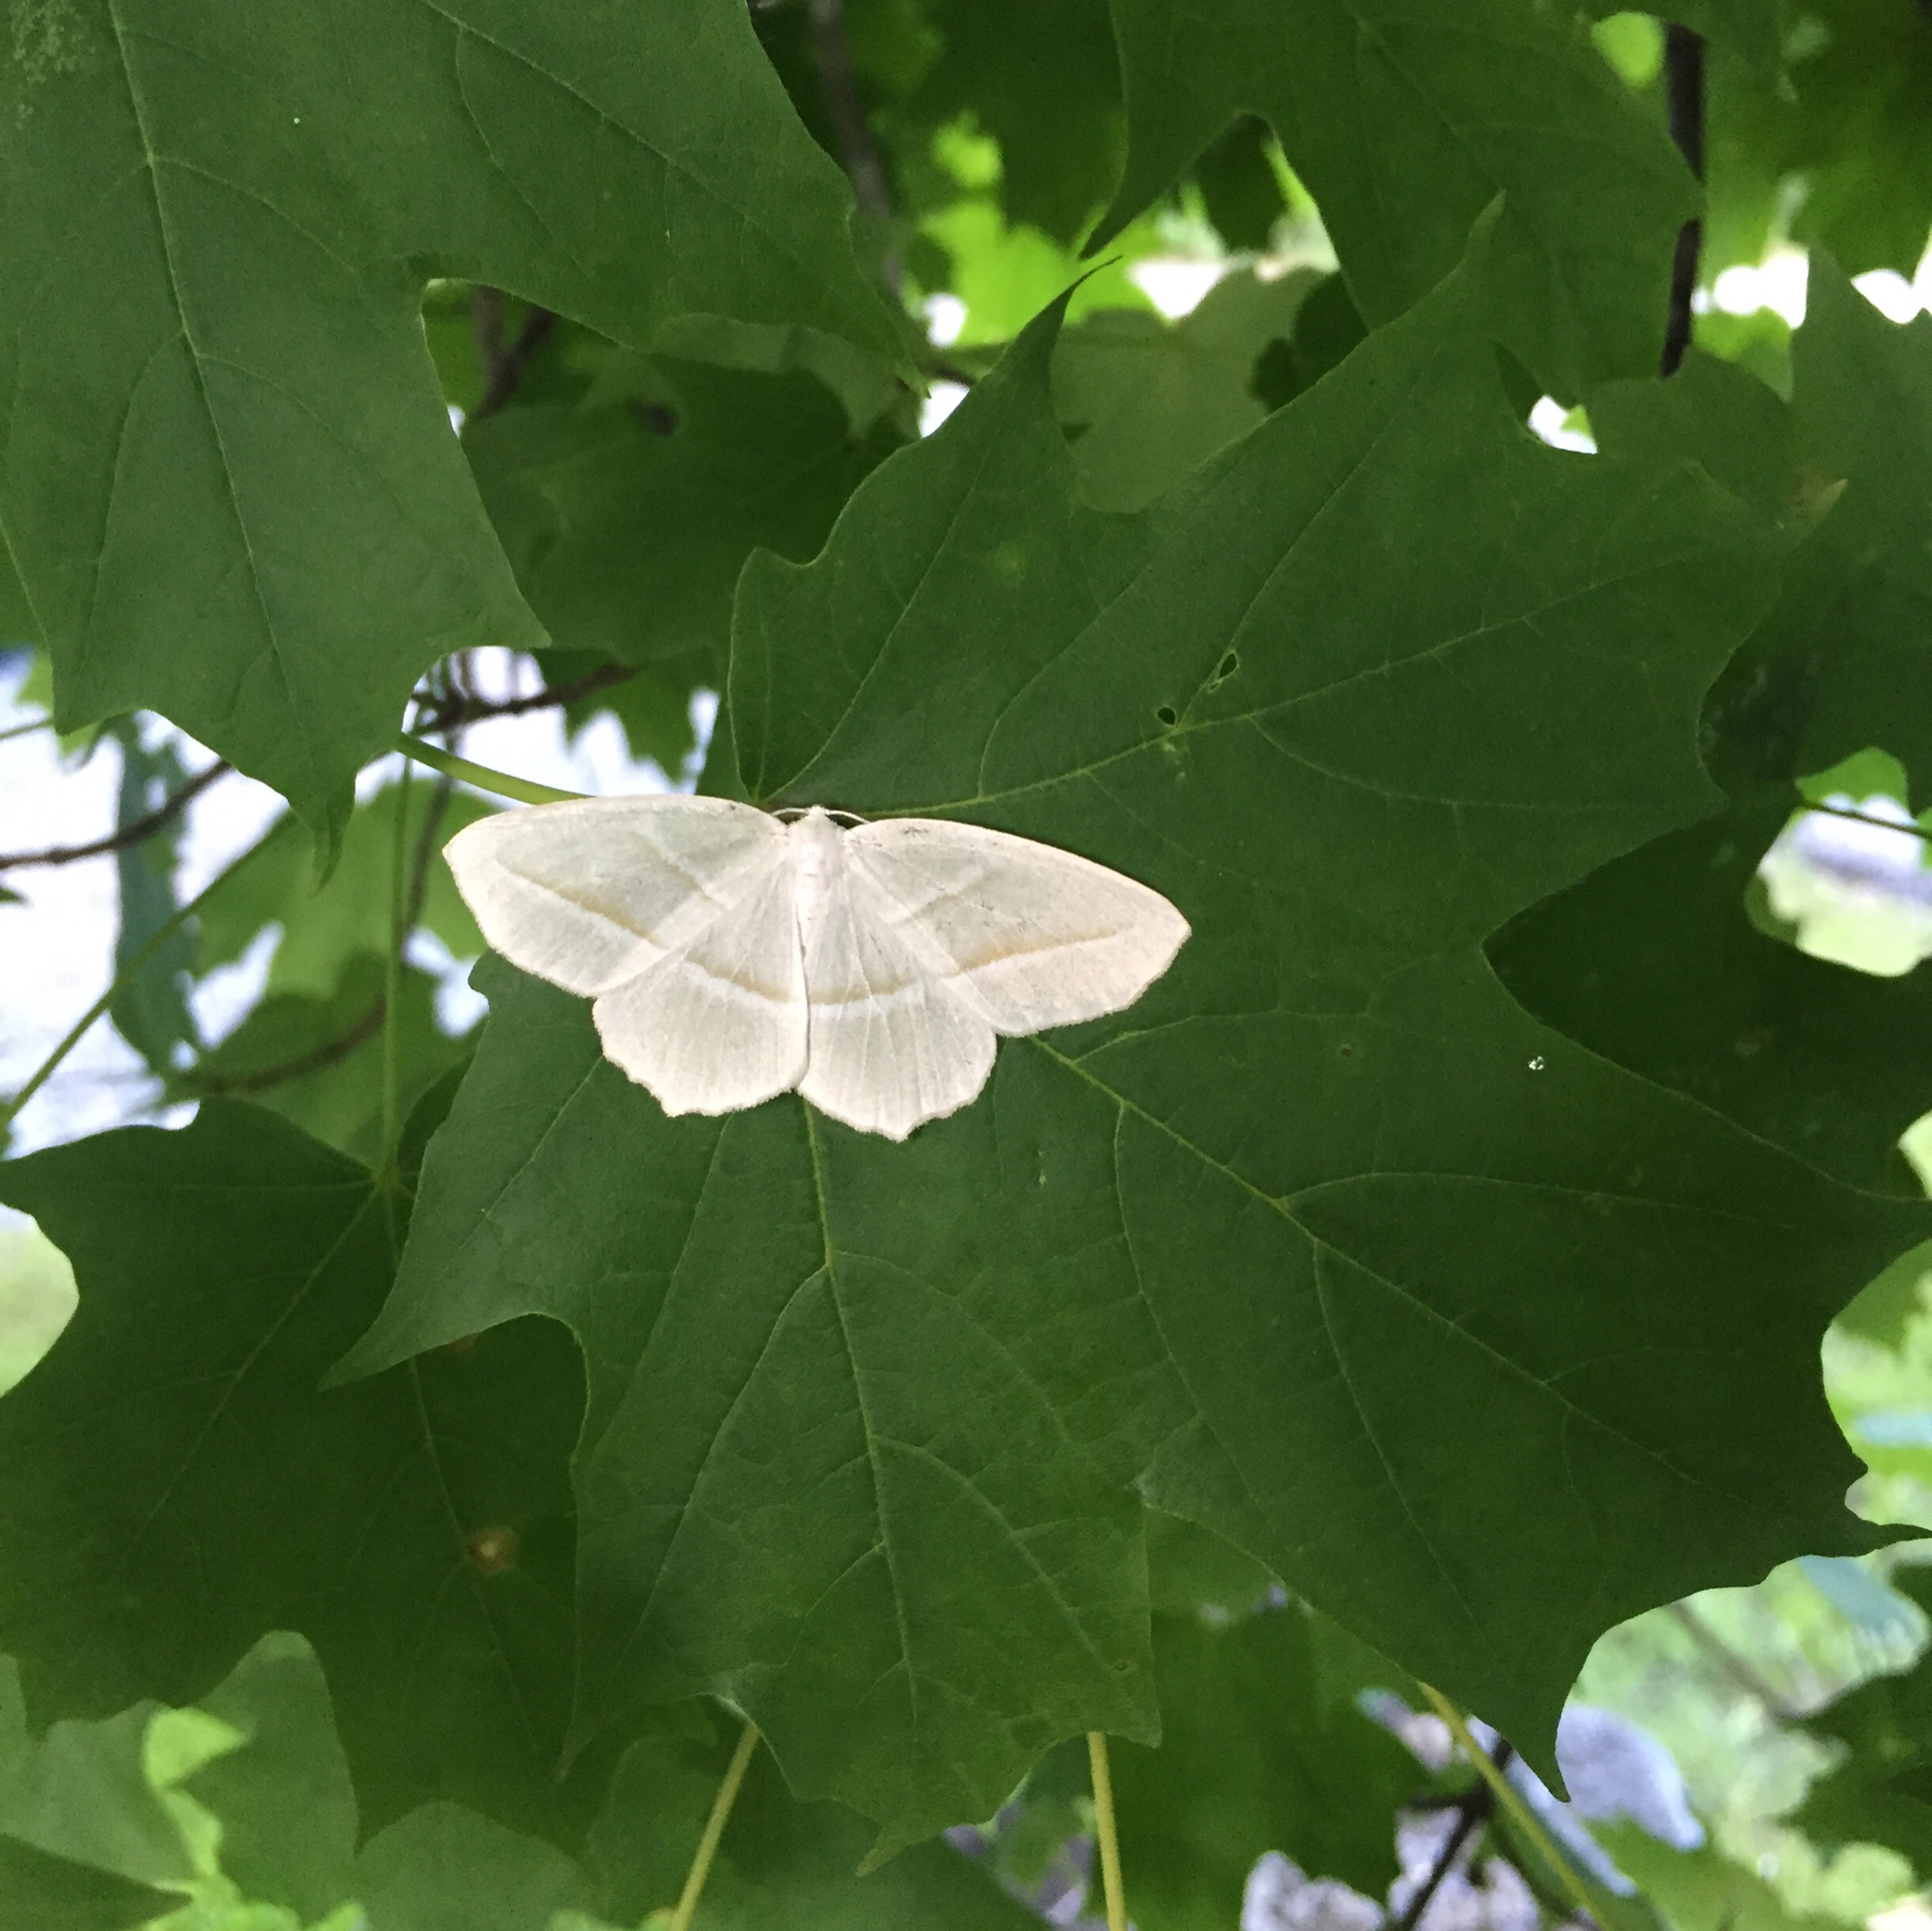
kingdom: Animalia
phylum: Arthropoda
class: Insecta
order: Lepidoptera
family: Geometridae
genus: Campaea
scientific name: Campaea perlata
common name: Fringed looper
